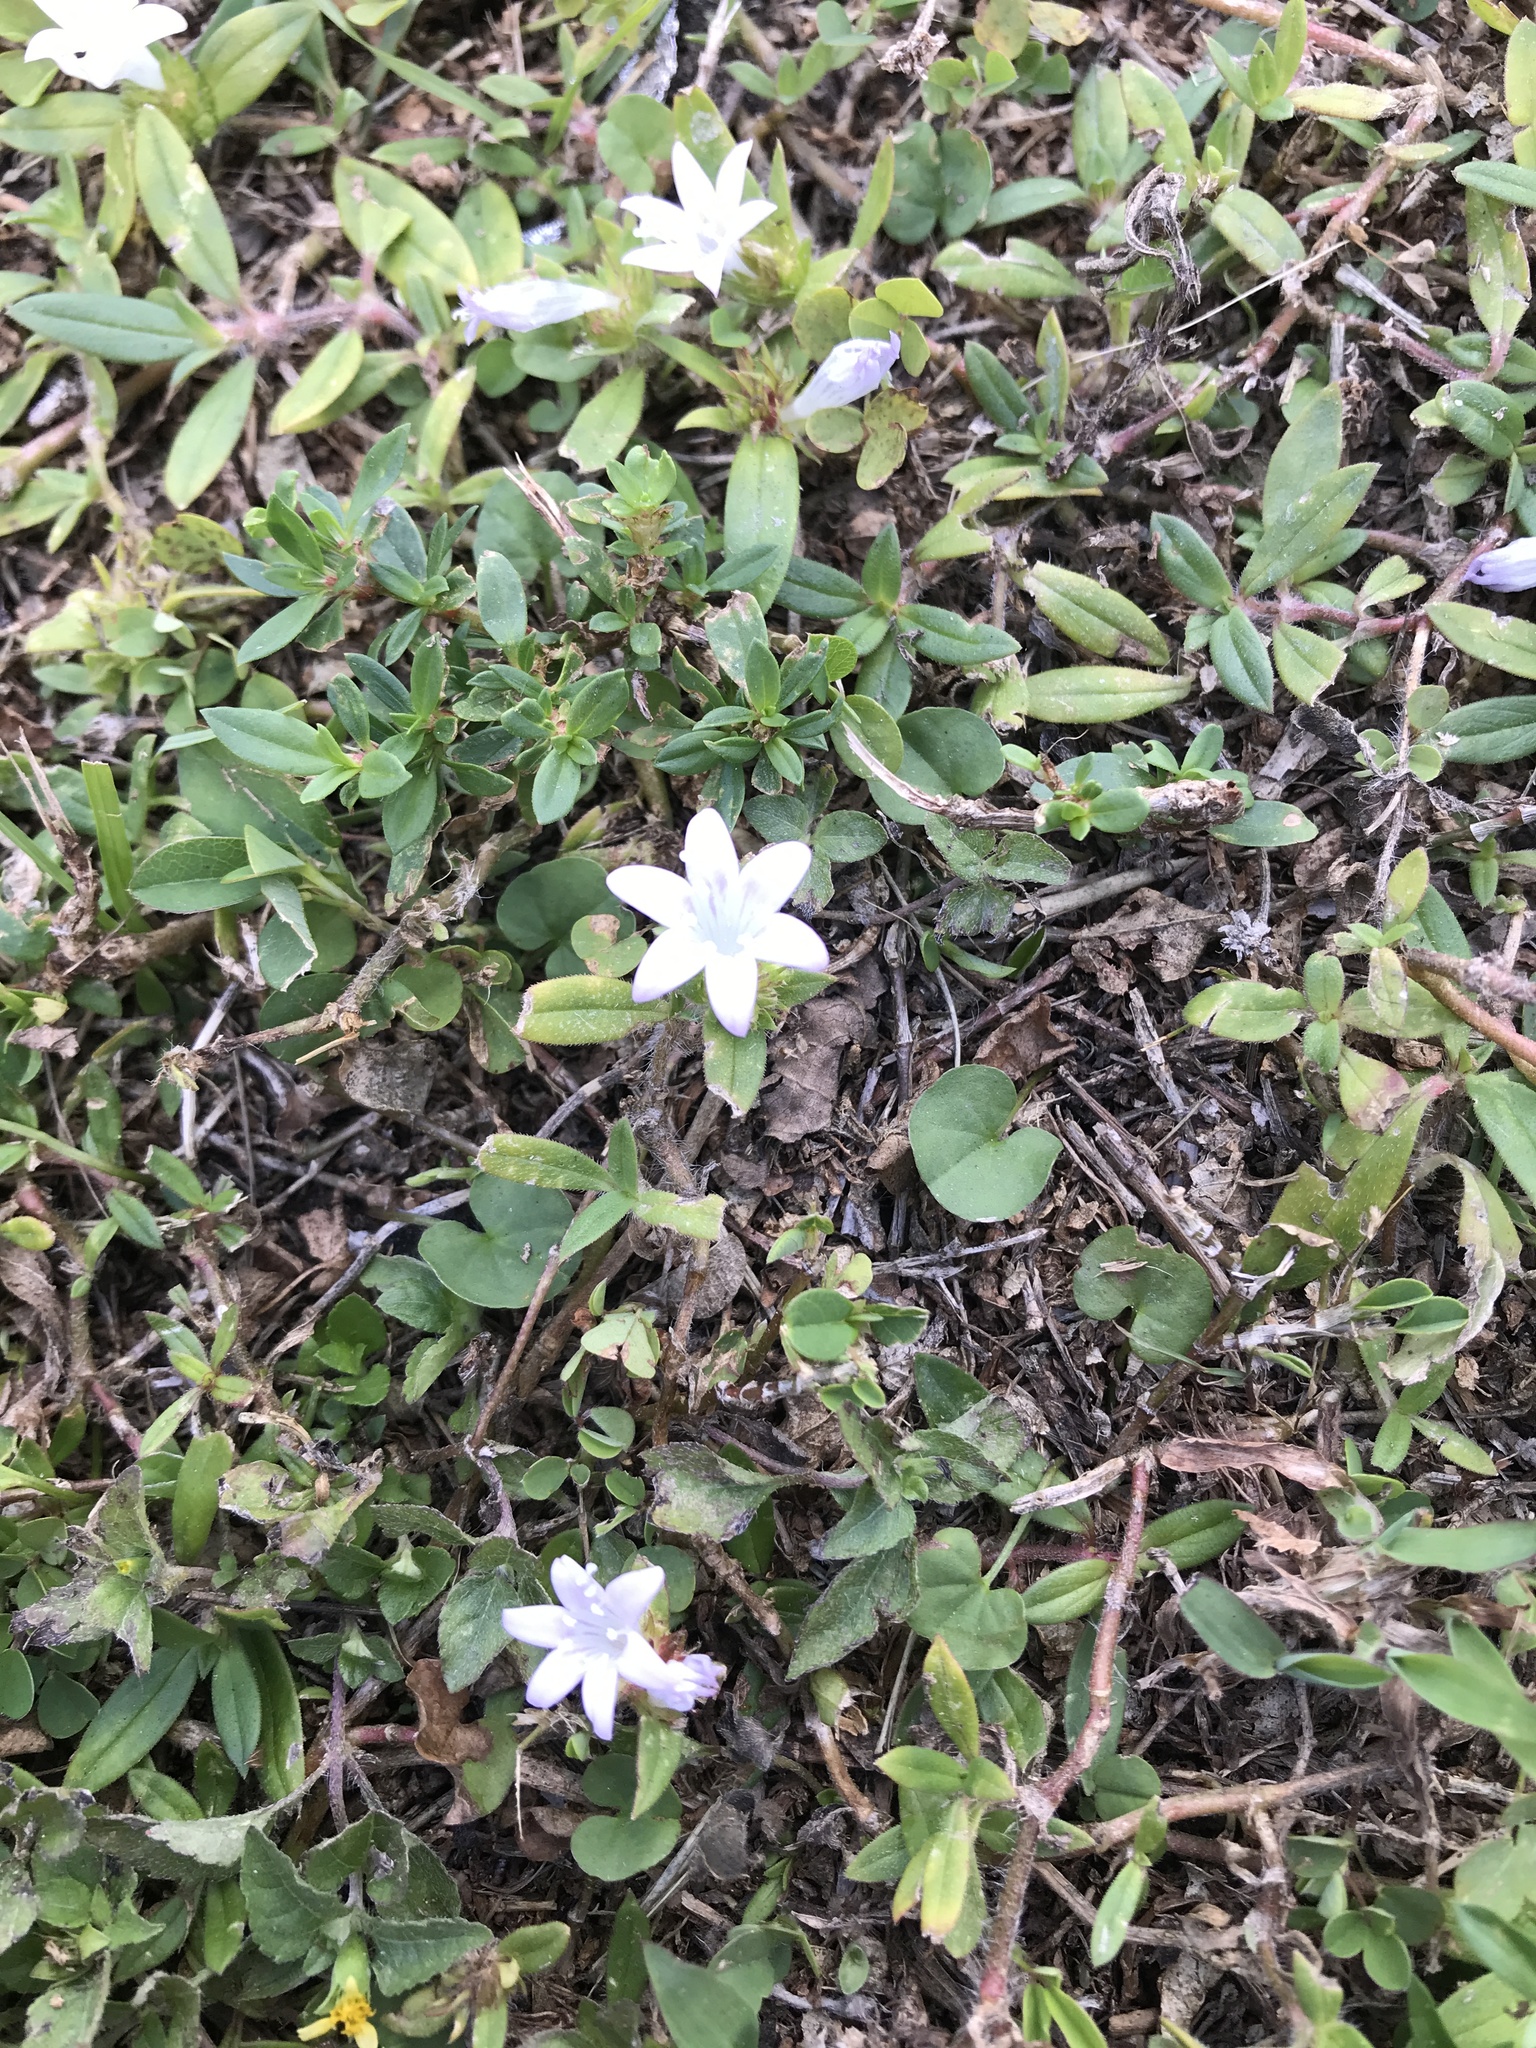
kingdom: Plantae
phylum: Tracheophyta
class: Magnoliopsida
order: Gentianales
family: Rubiaceae
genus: Richardia
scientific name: Richardia grandiflora
